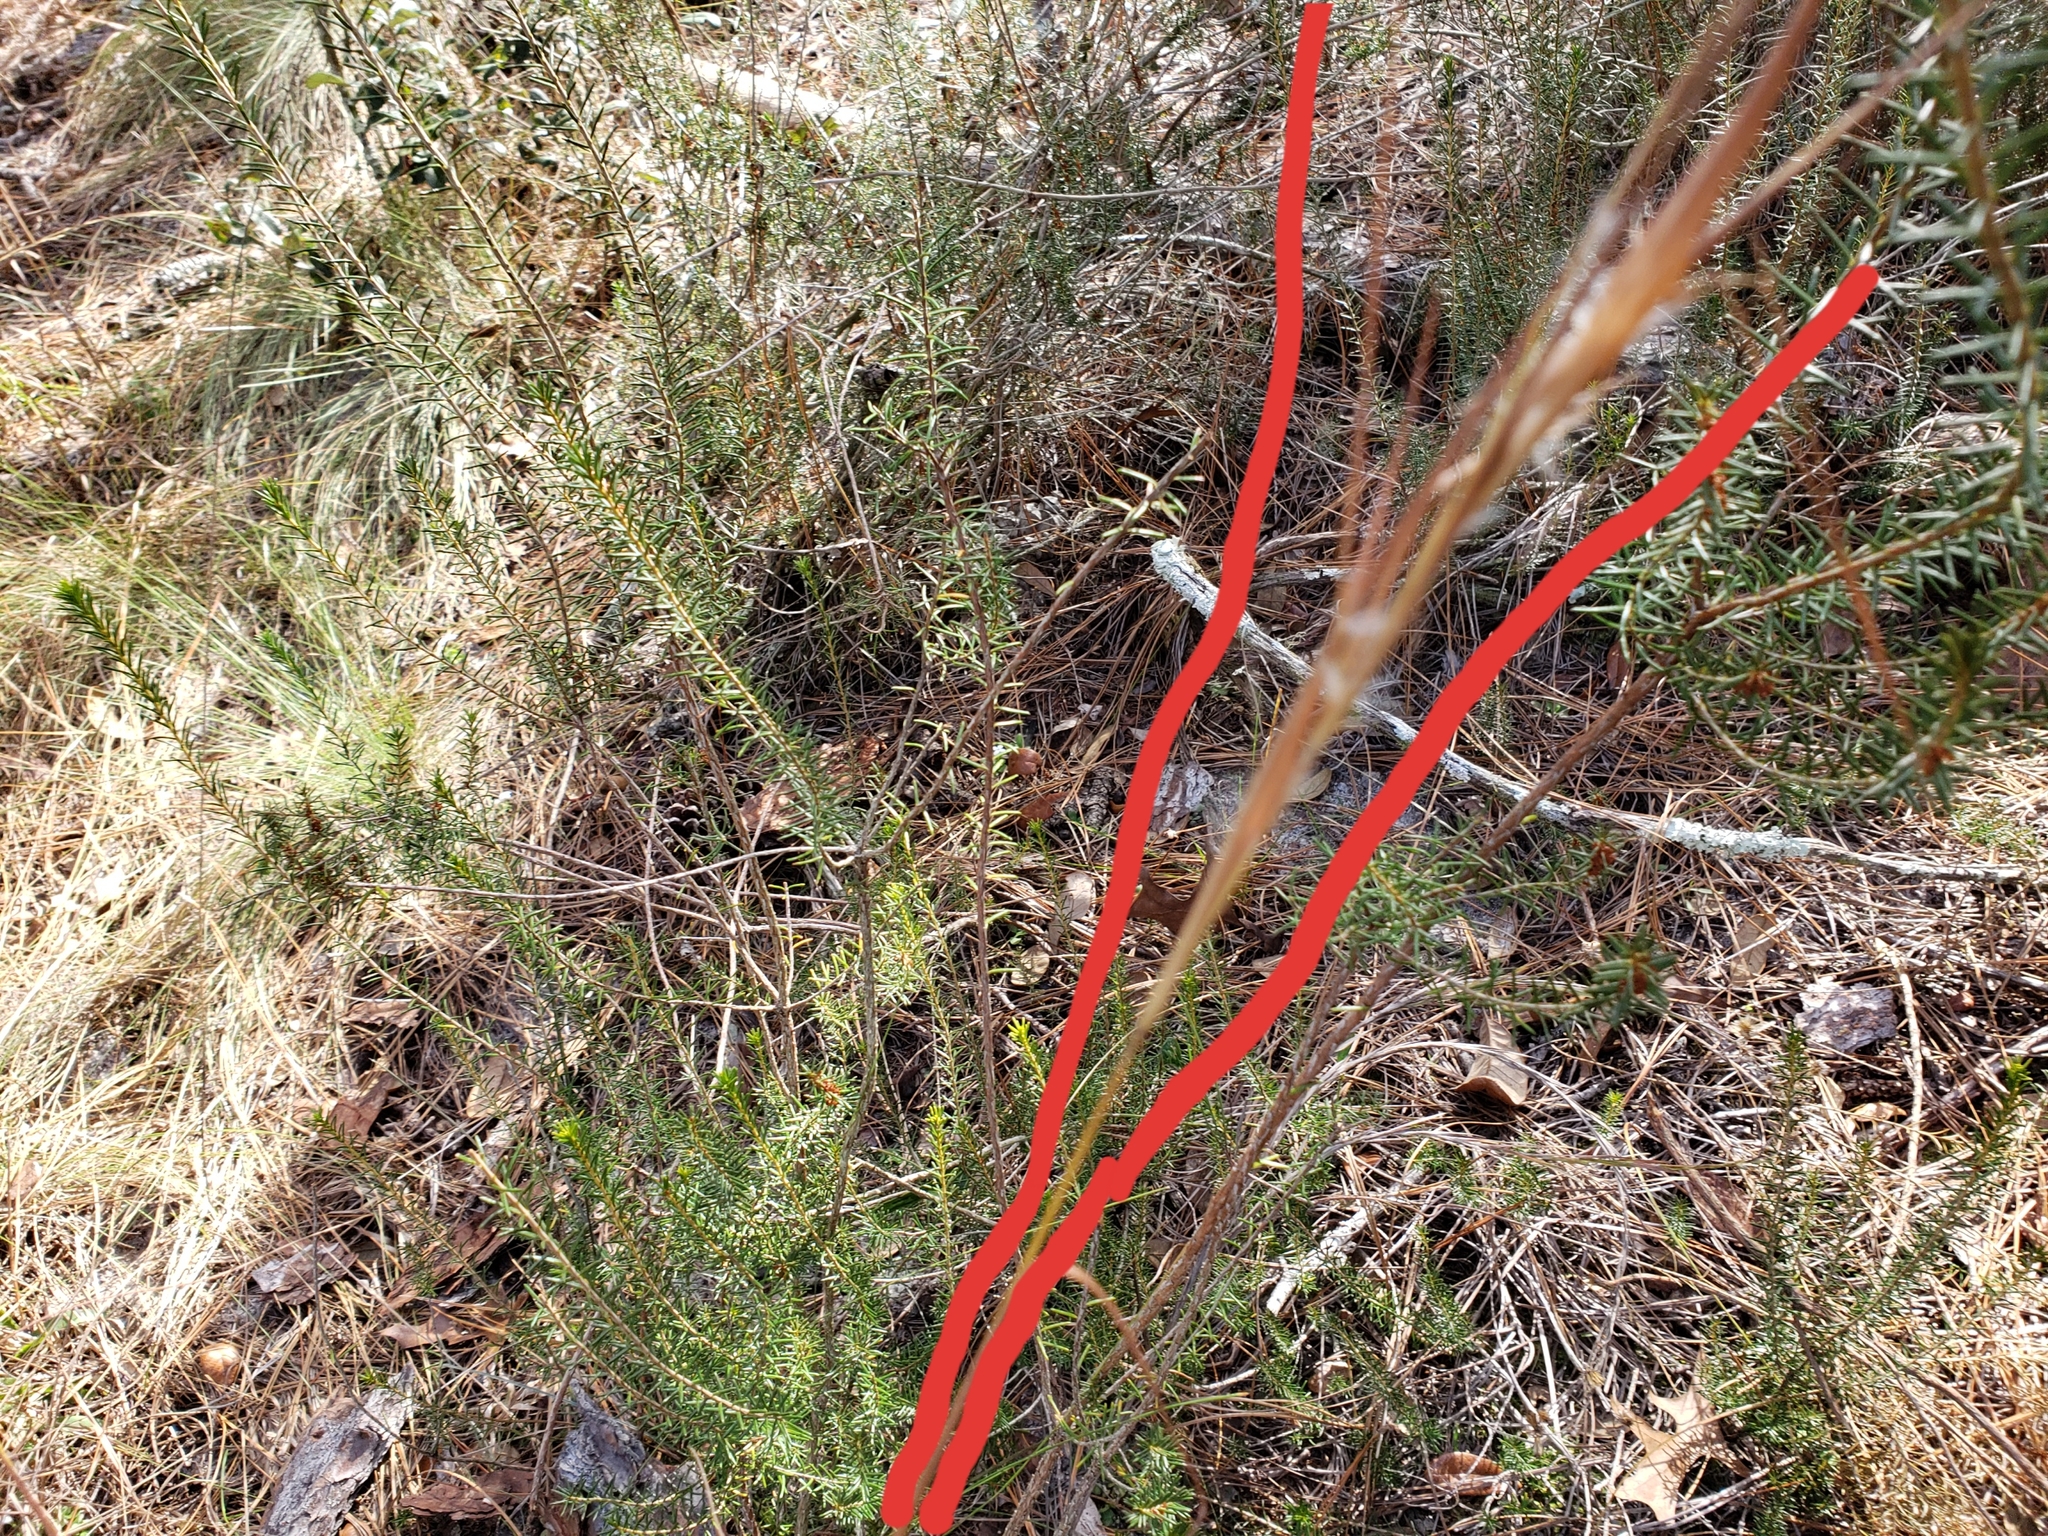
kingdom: Plantae
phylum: Tracheophyta
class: Liliopsida
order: Poales
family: Poaceae
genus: Andropogon
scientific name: Andropogon gyrans
